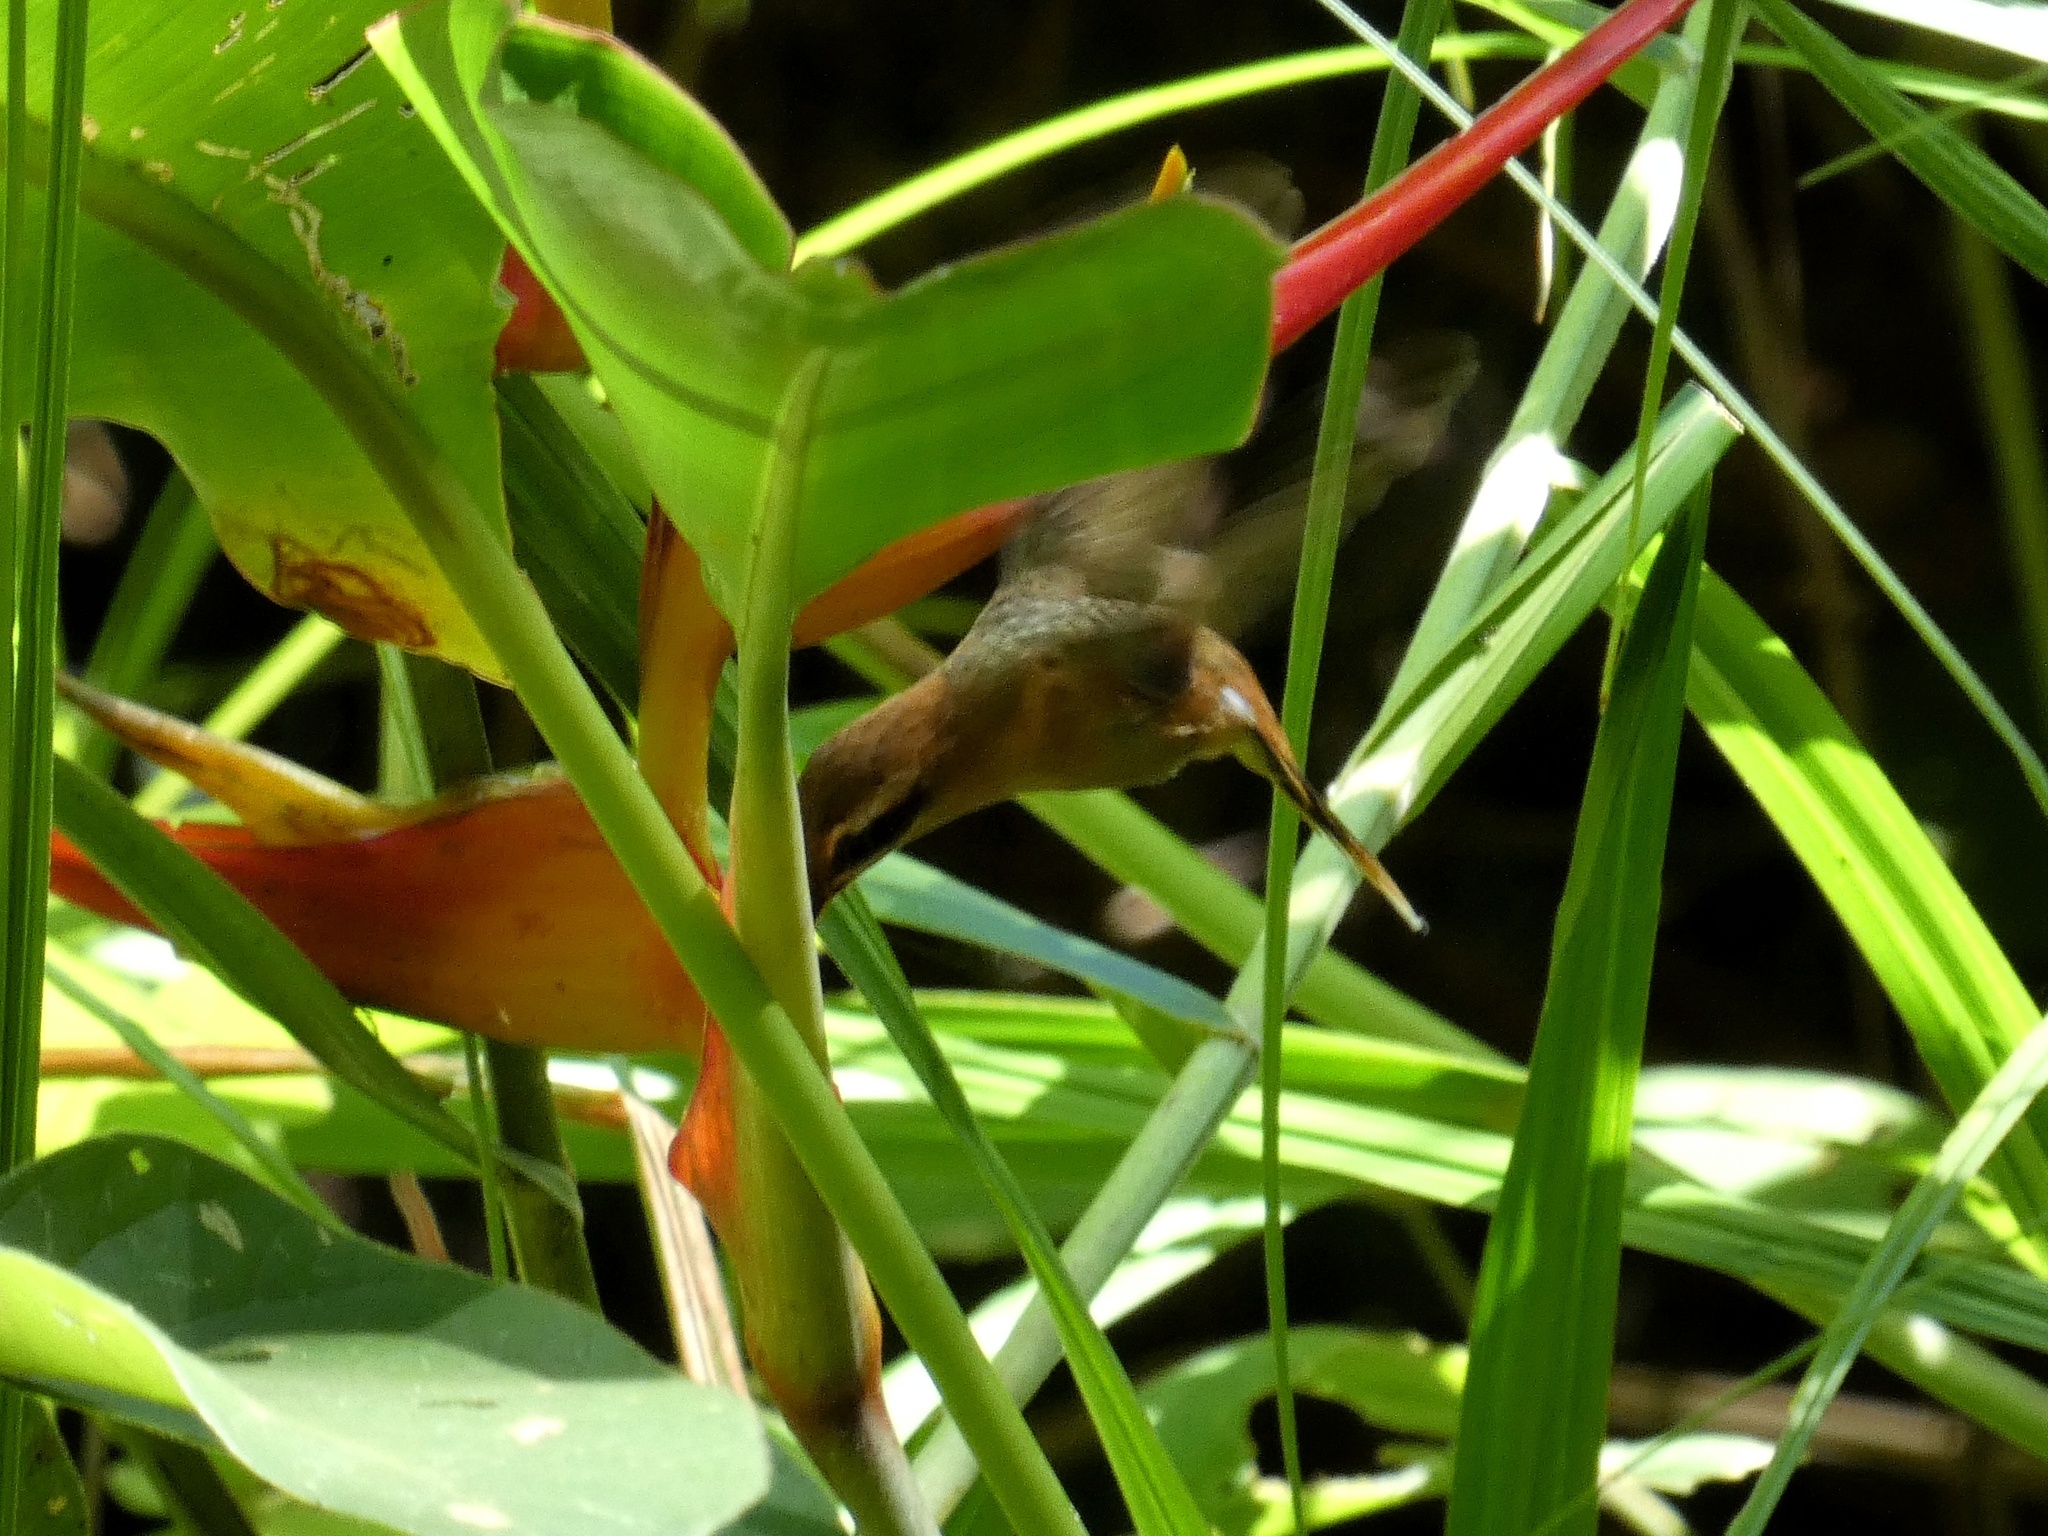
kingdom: Animalia
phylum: Chordata
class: Aves
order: Apodiformes
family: Trochilidae
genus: Phaethornis
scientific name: Phaethornis striigularis
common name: Stripe-throated hermit
